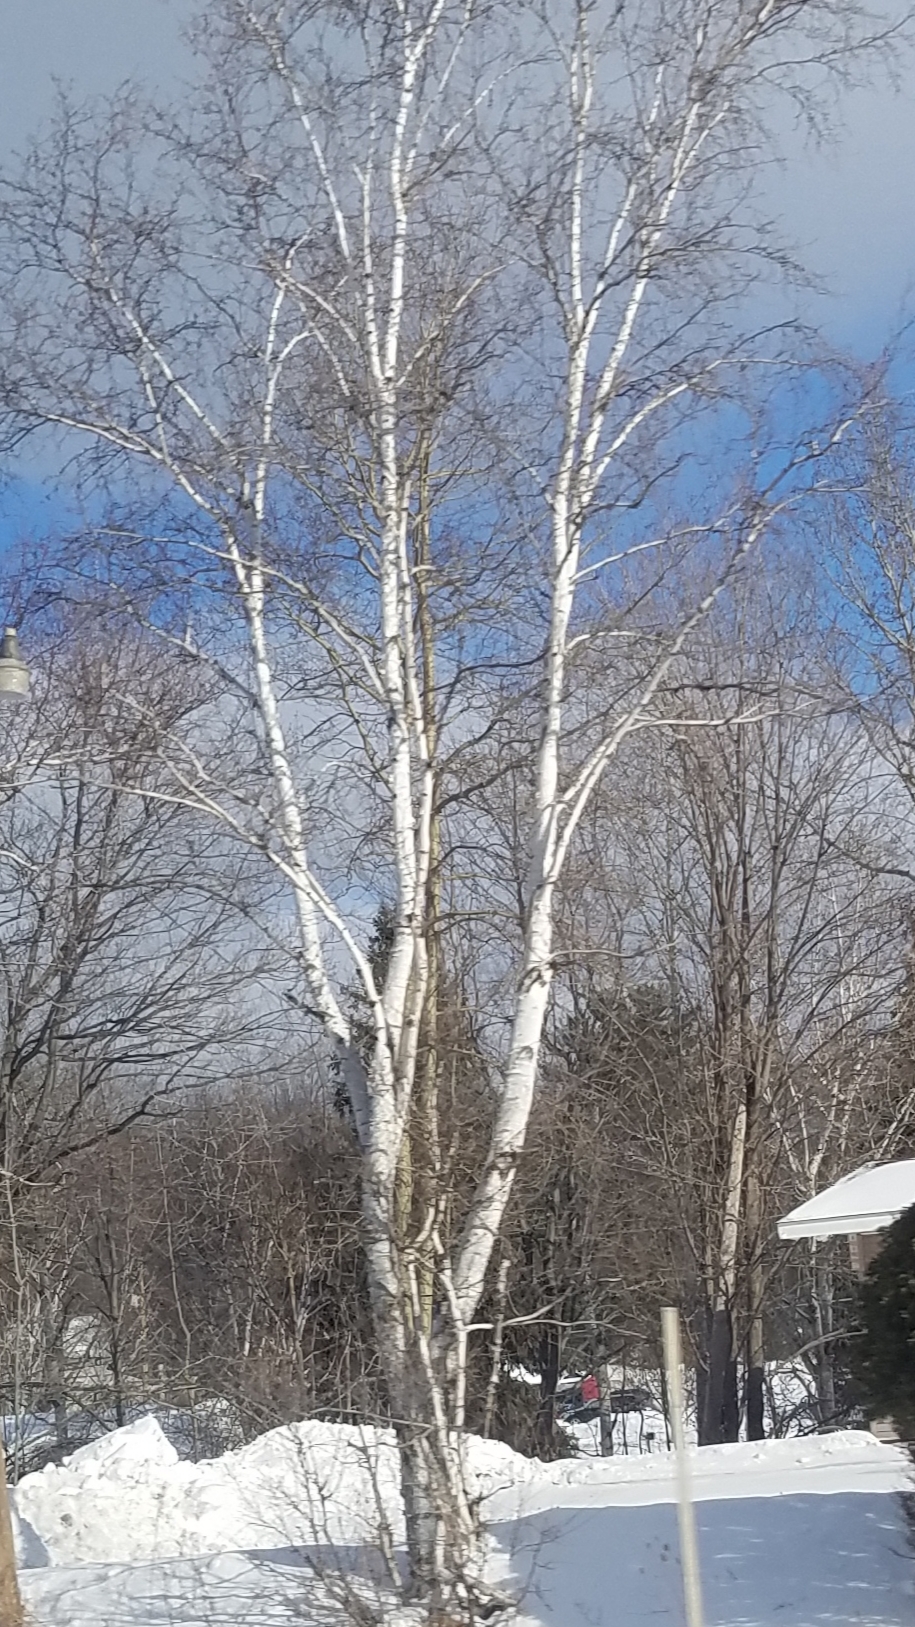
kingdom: Plantae
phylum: Tracheophyta
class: Magnoliopsida
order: Fagales
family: Betulaceae
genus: Betula
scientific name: Betula papyrifera
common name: Paper birch
